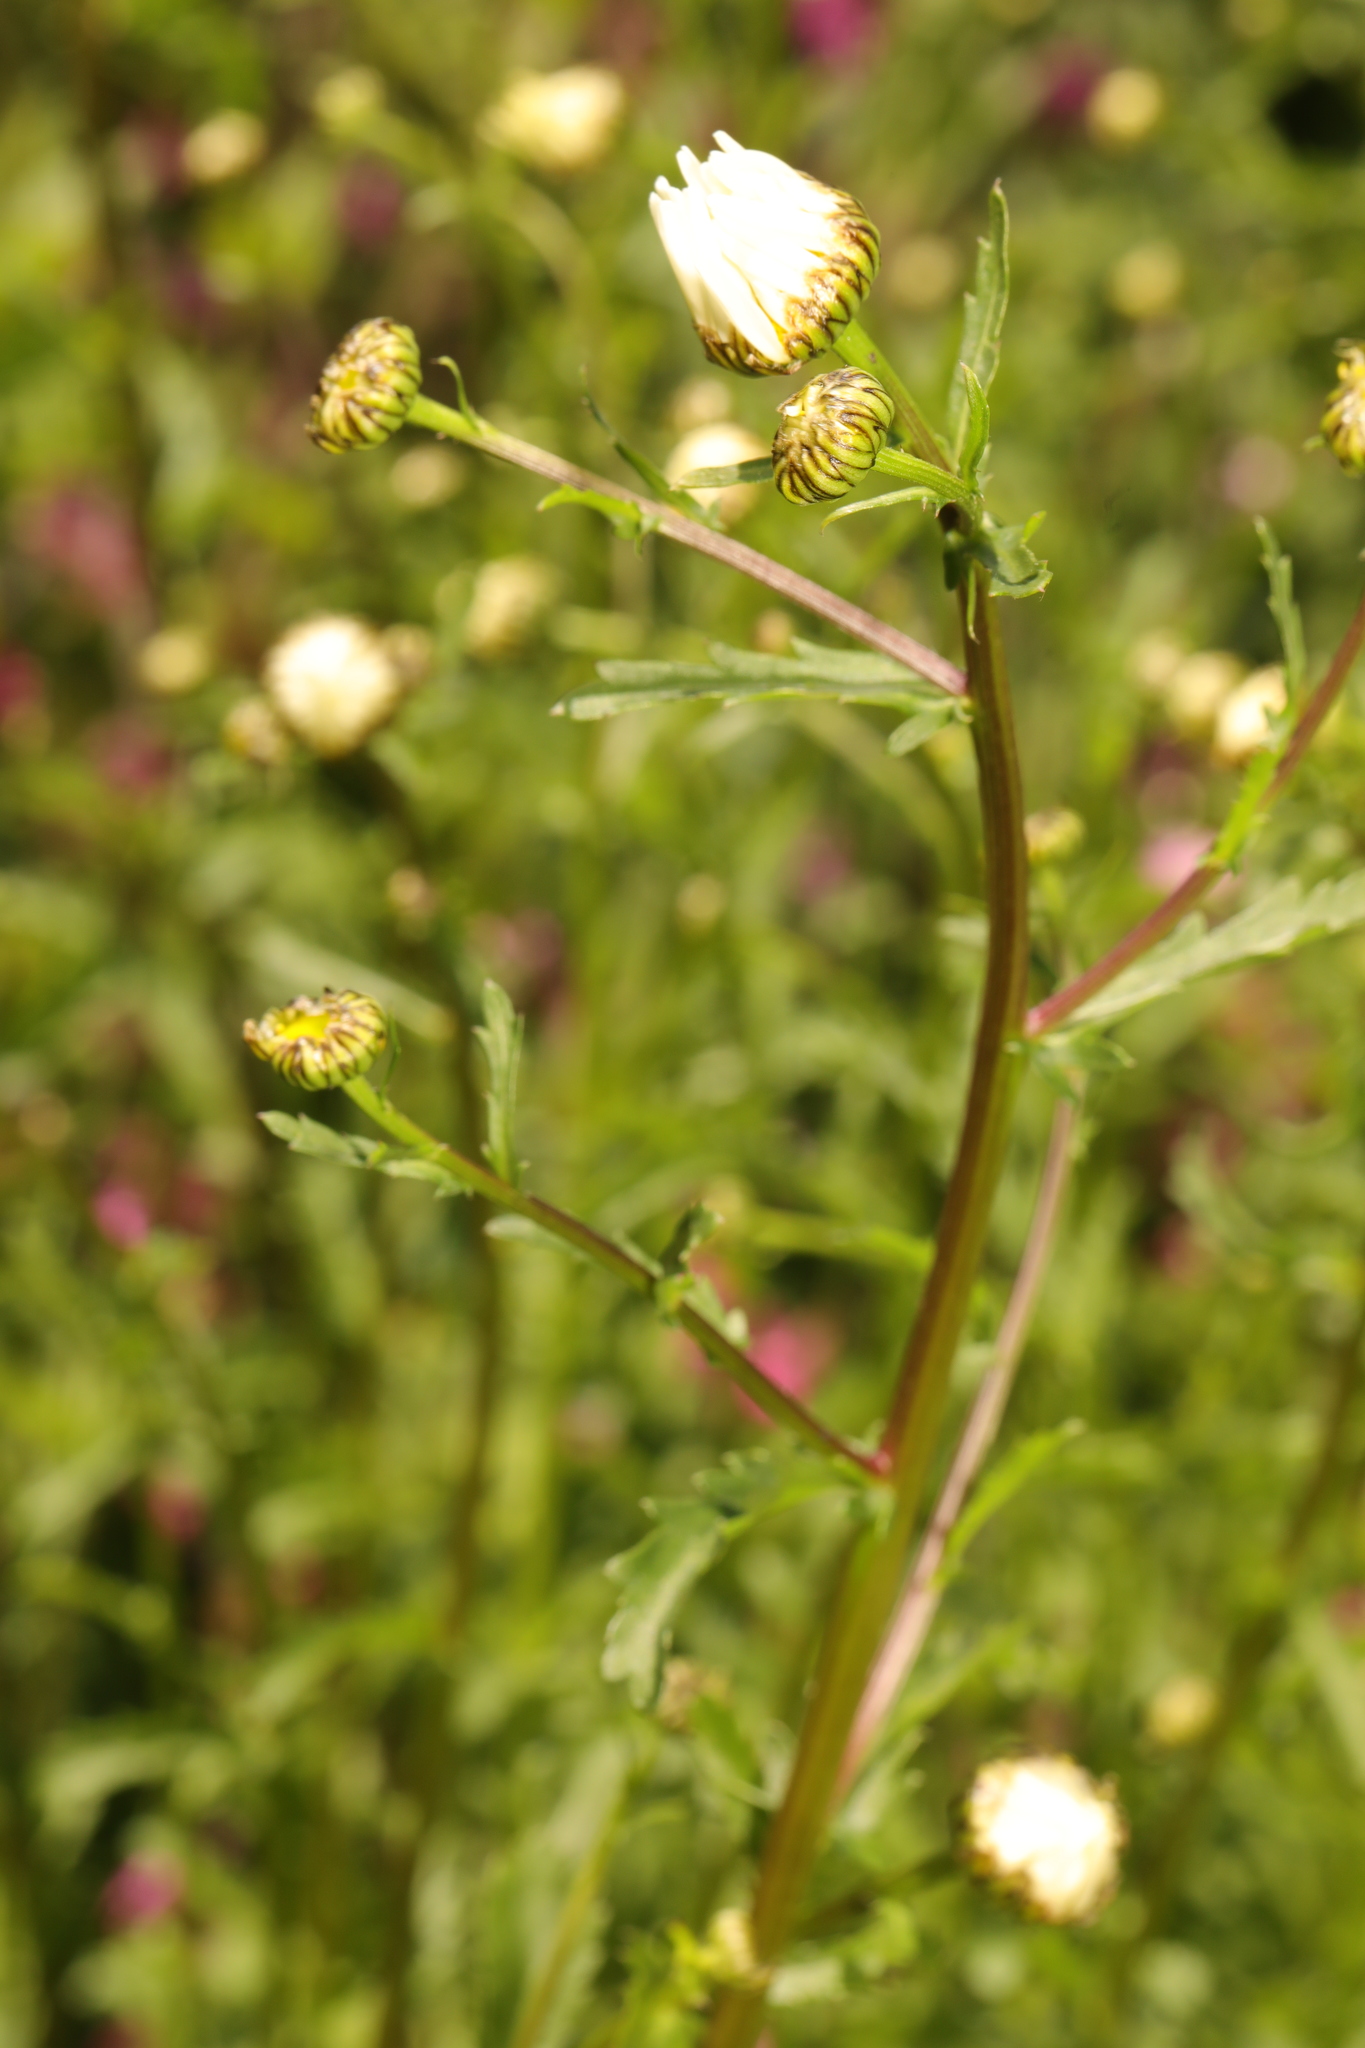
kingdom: Plantae
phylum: Tracheophyta
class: Magnoliopsida
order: Asterales
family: Asteraceae
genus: Leucanthemum
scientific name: Leucanthemum vulgare
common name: Oxeye daisy
